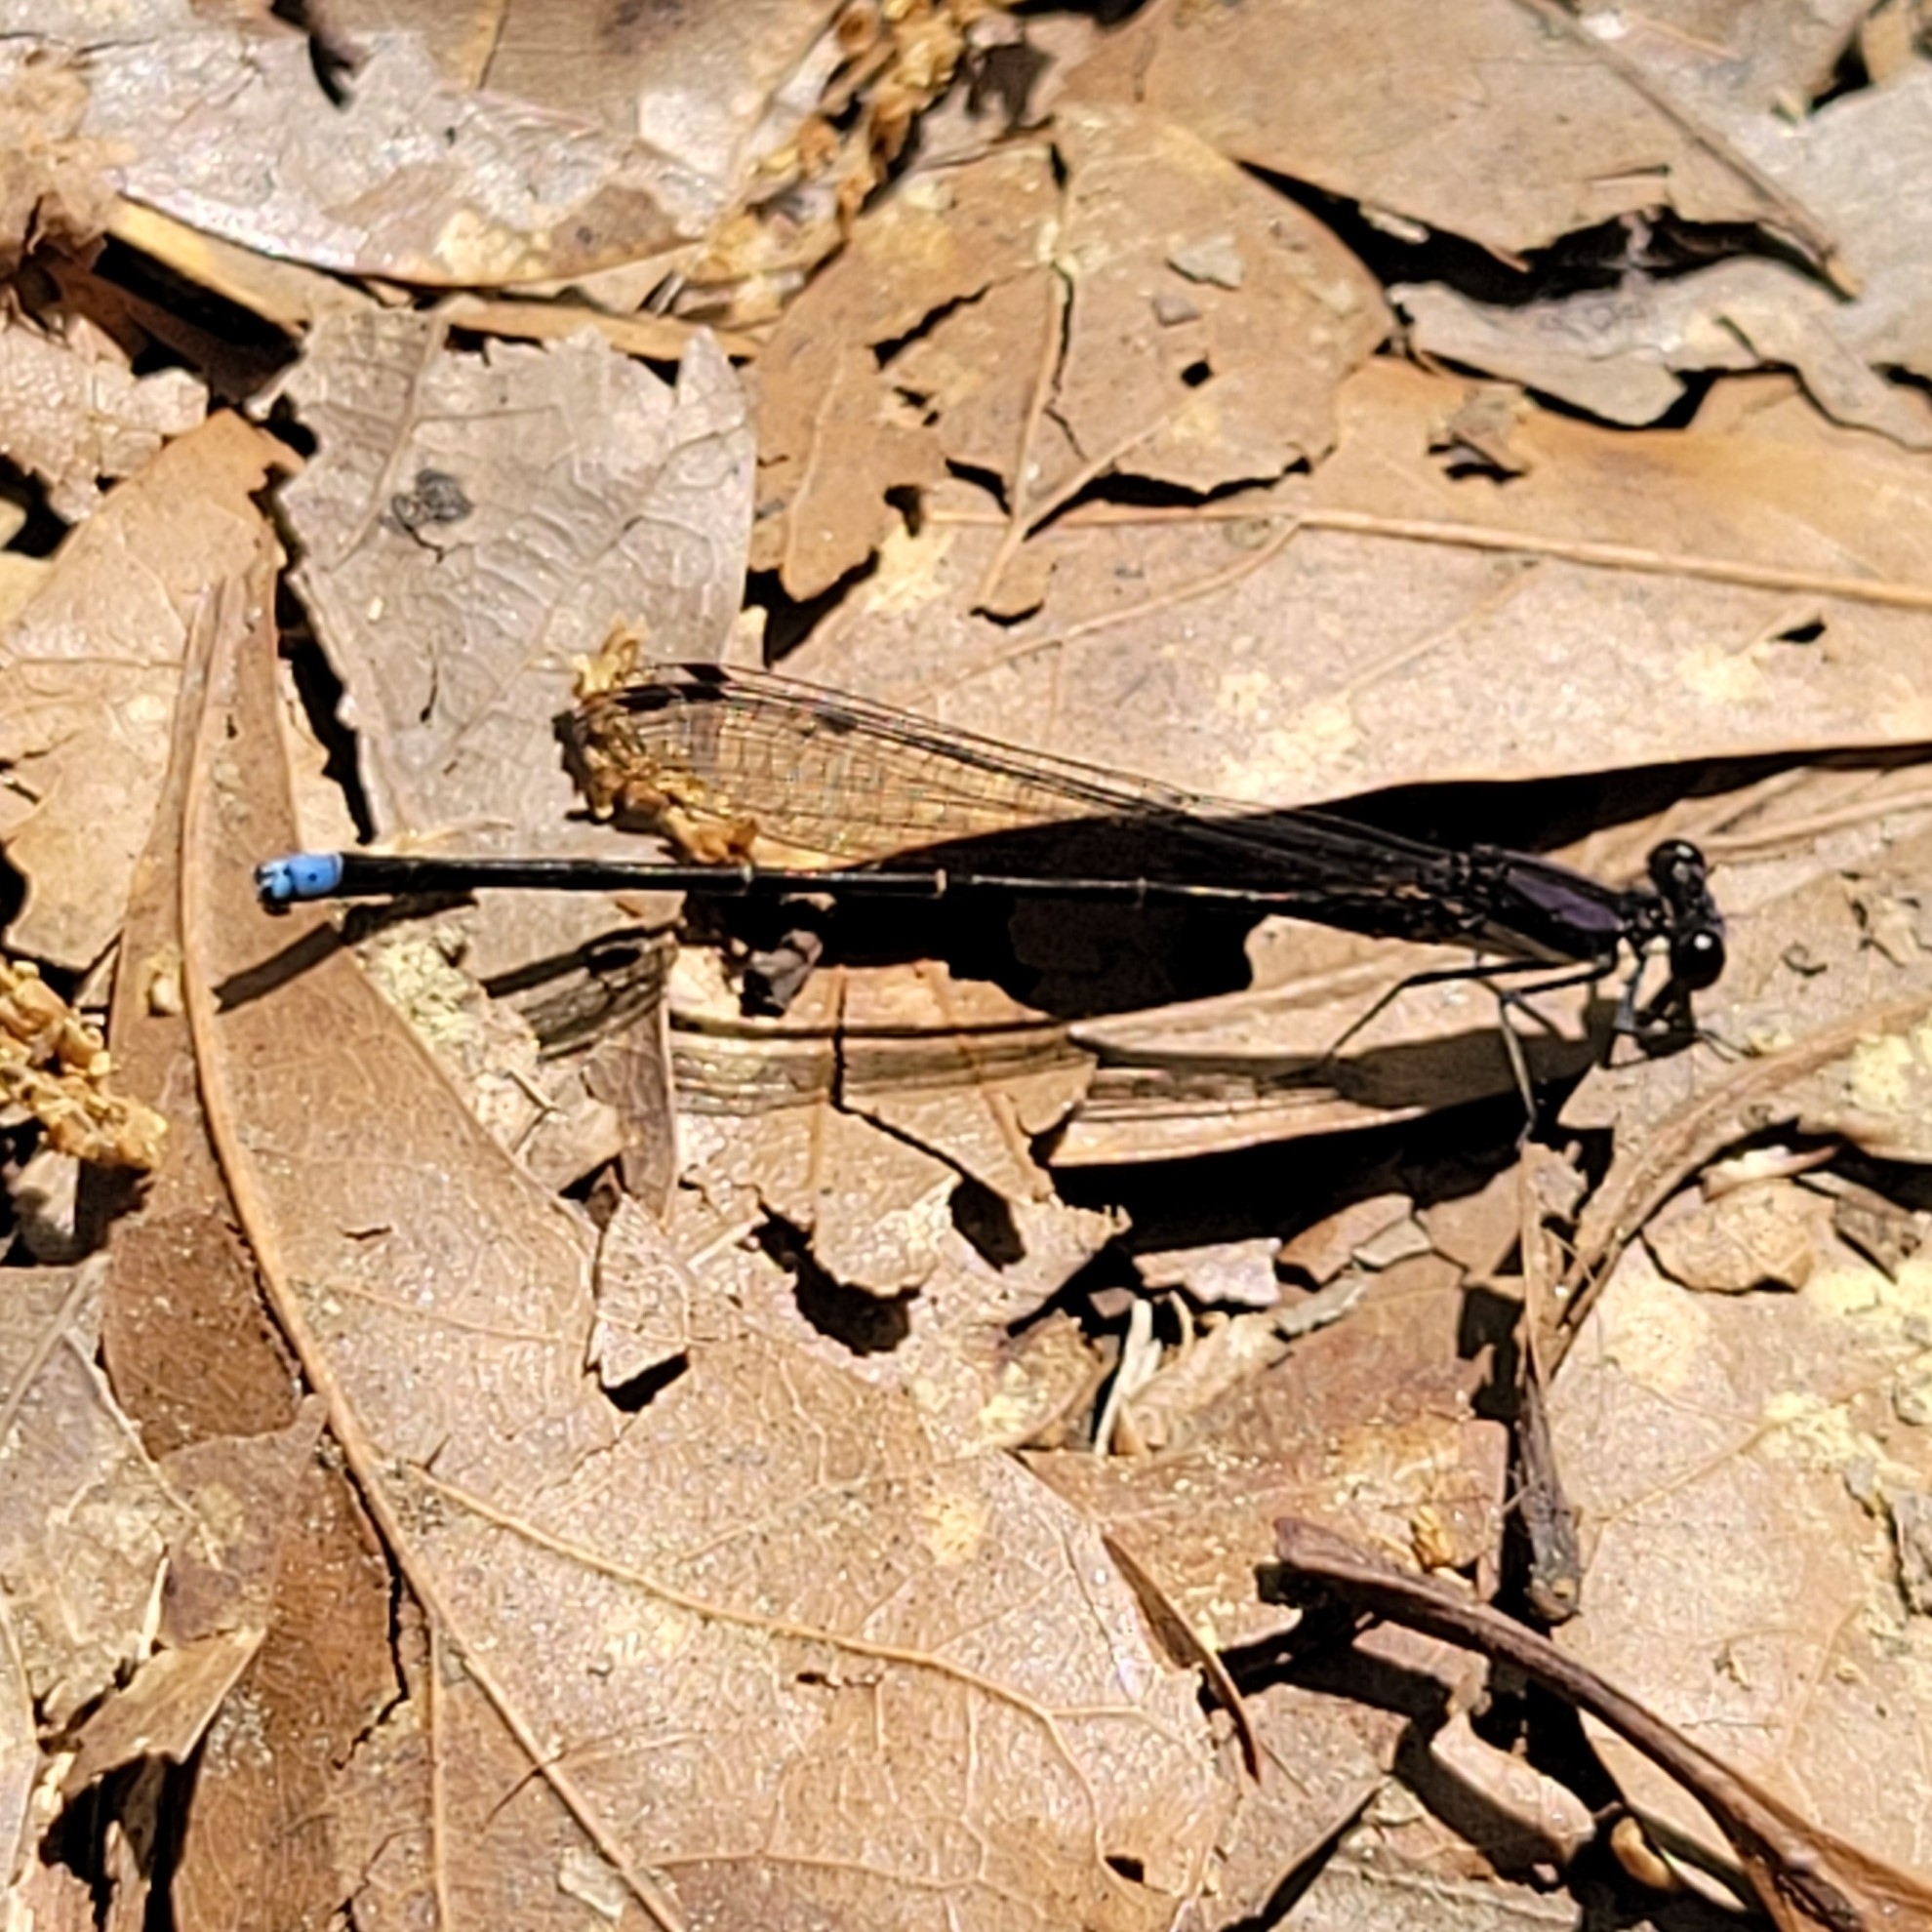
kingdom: Animalia
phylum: Arthropoda
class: Insecta
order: Odonata
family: Coenagrionidae
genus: Argia
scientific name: Argia tibialis
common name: Blue-tipped dancer
